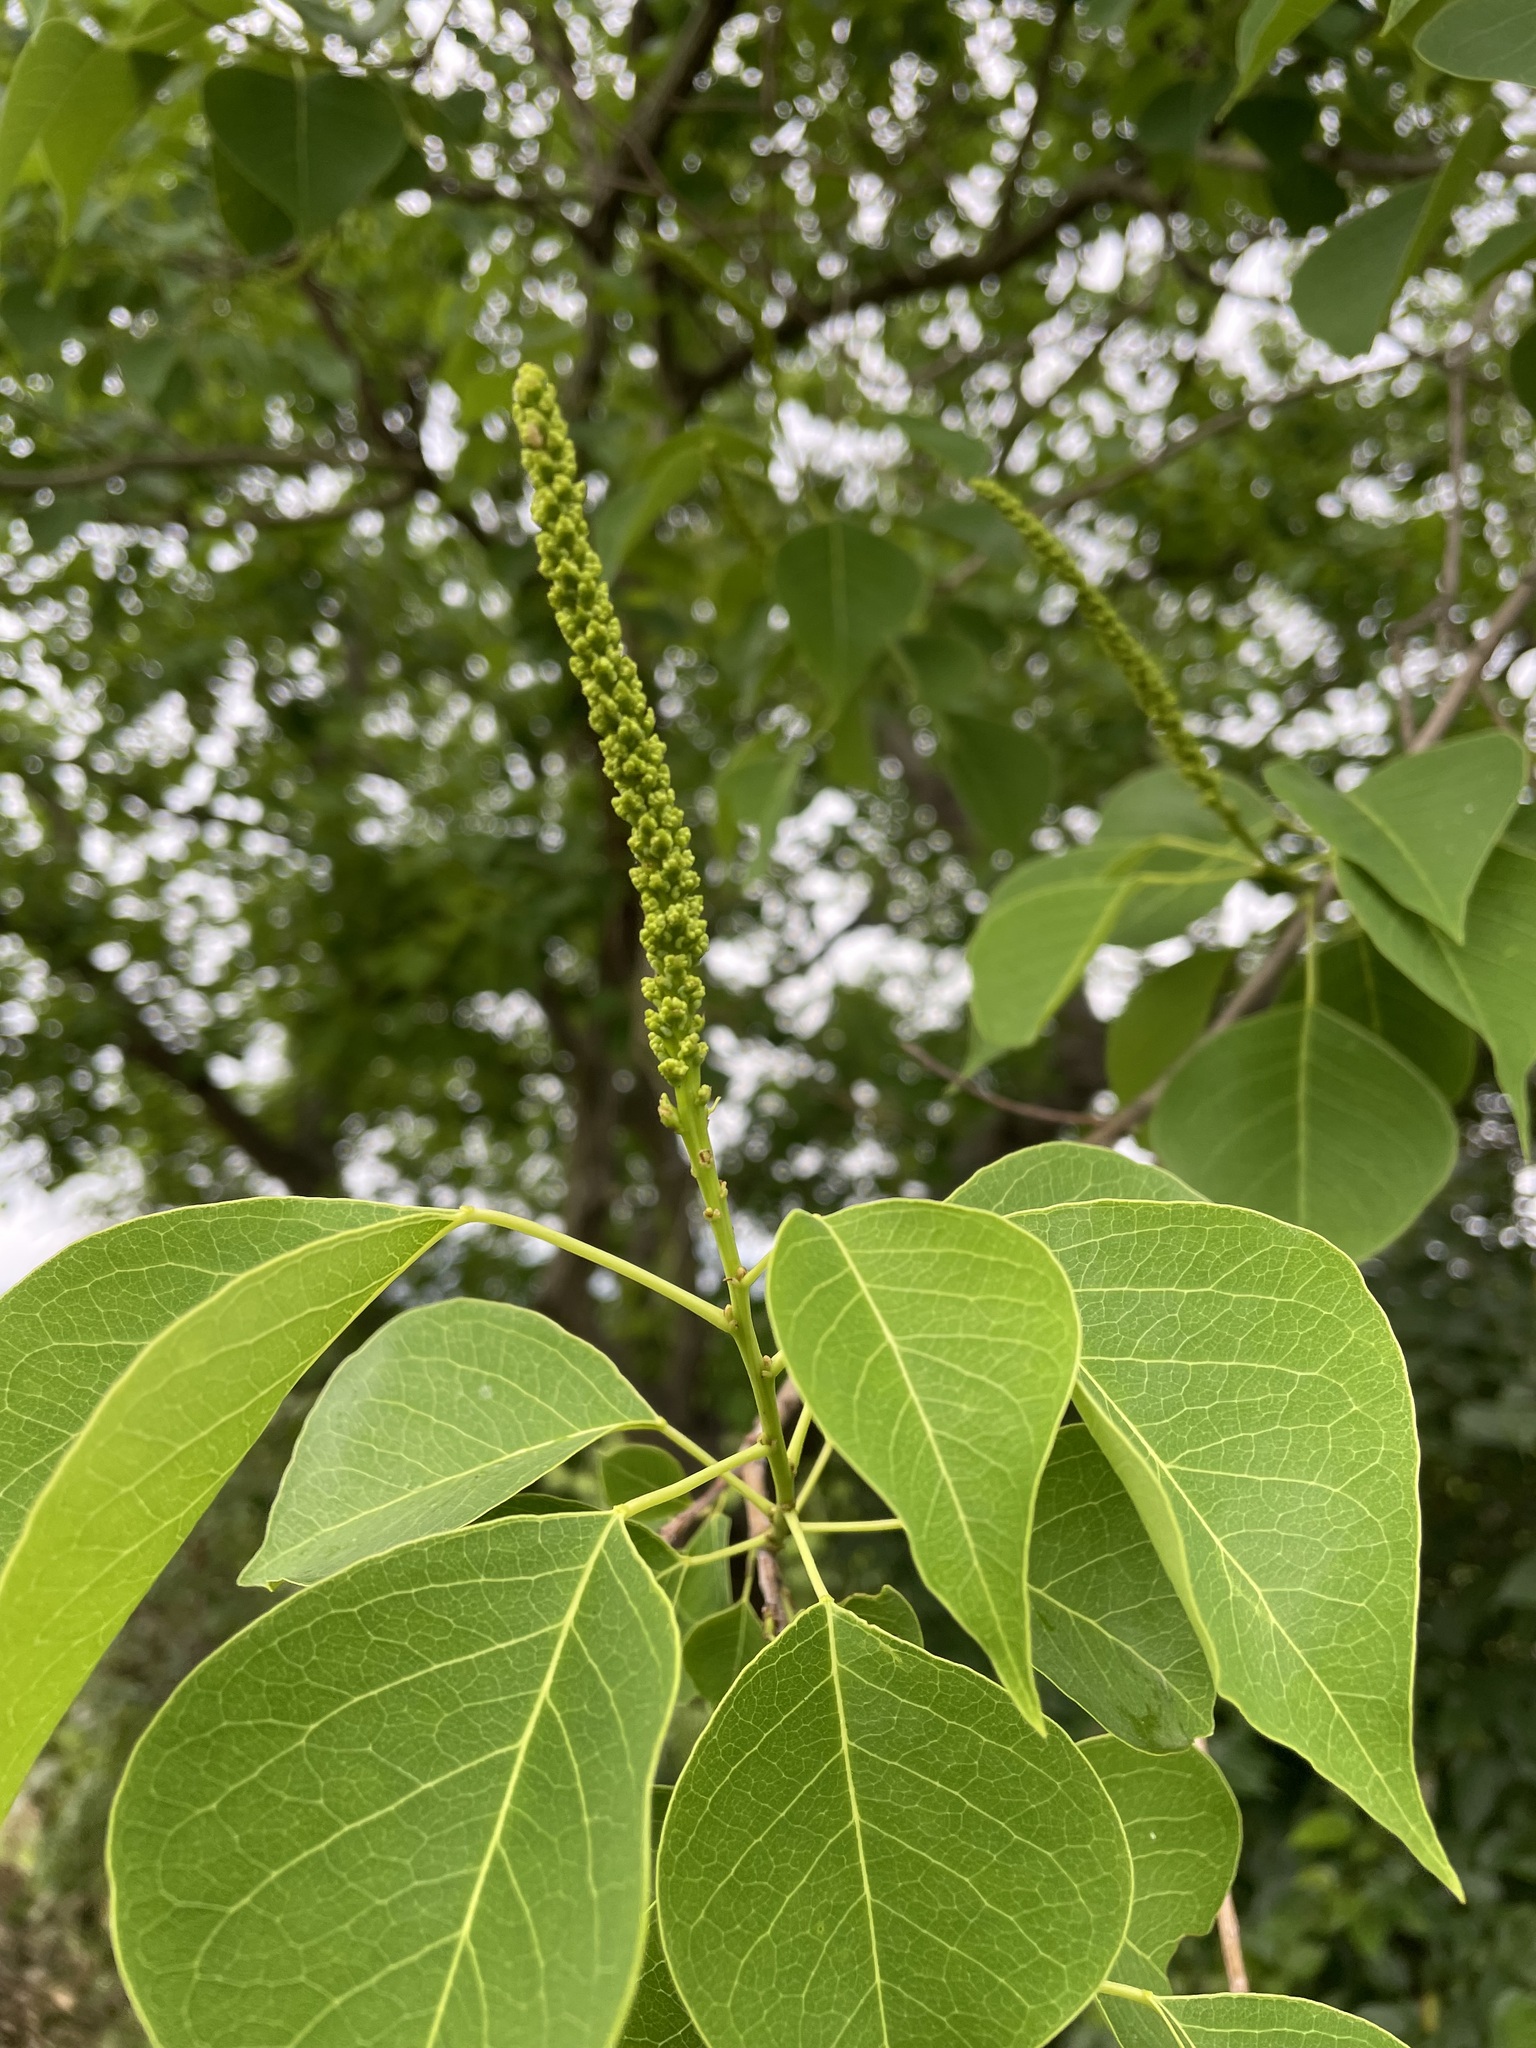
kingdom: Plantae
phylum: Tracheophyta
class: Magnoliopsida
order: Malpighiales
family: Euphorbiaceae
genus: Triadica
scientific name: Triadica sebifera
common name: Chinese tallow
